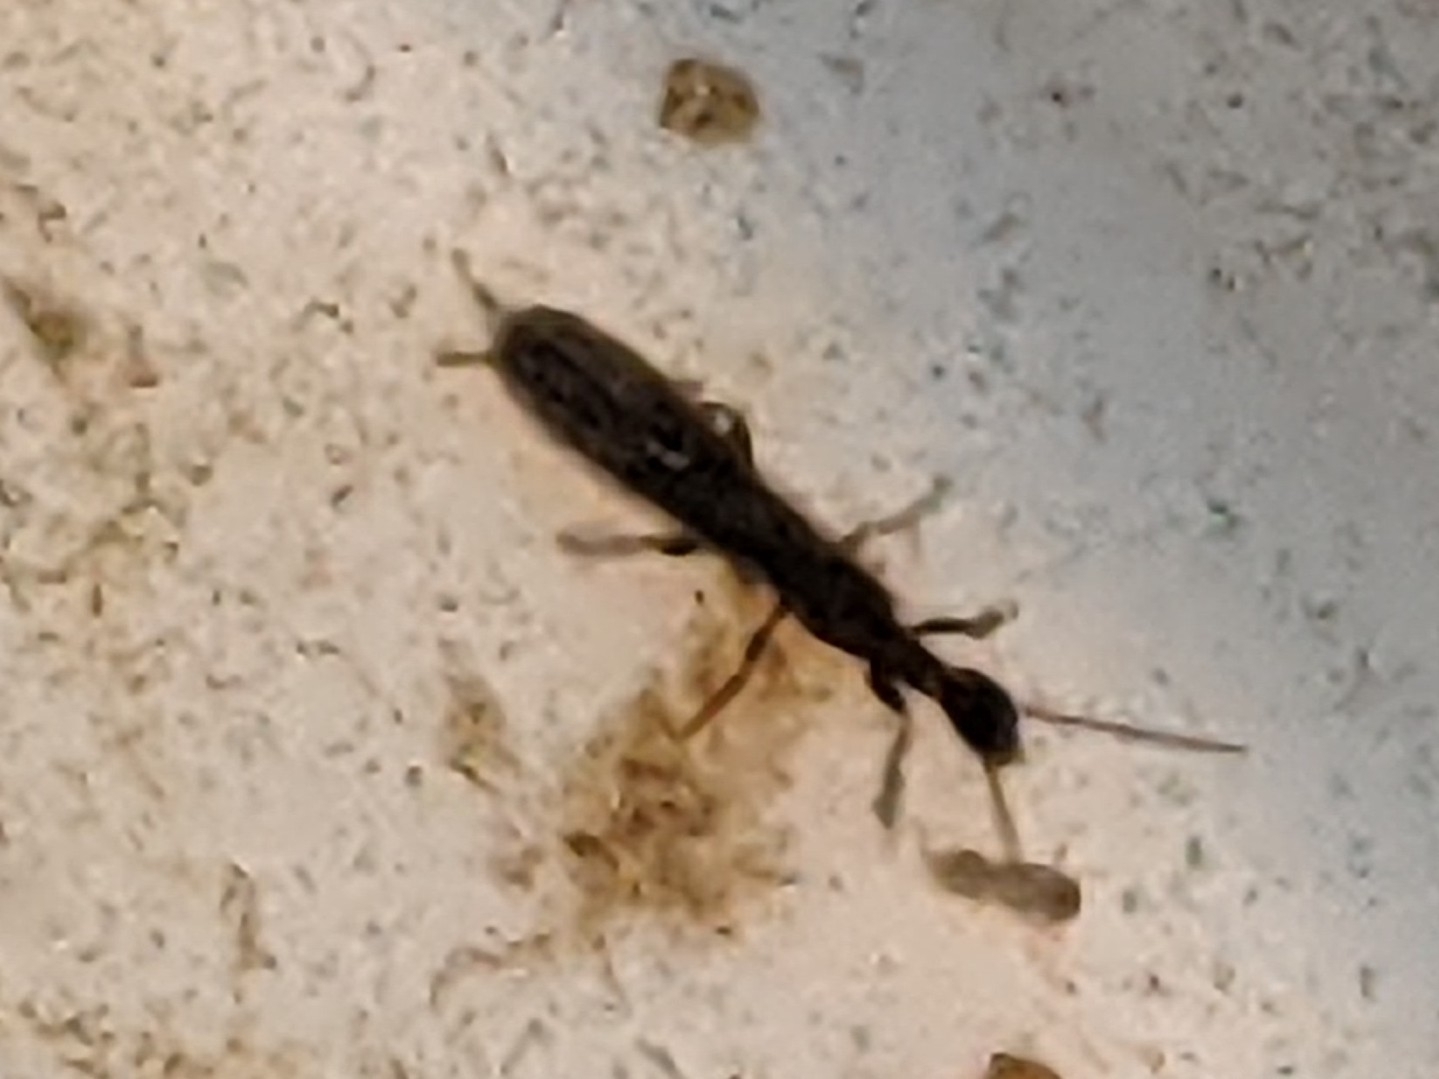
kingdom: Animalia
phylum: Arthropoda
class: Insecta
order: Embioptera
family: Oligotomidae
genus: Oligotoma
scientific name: Oligotoma nigra
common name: Black webspinner
